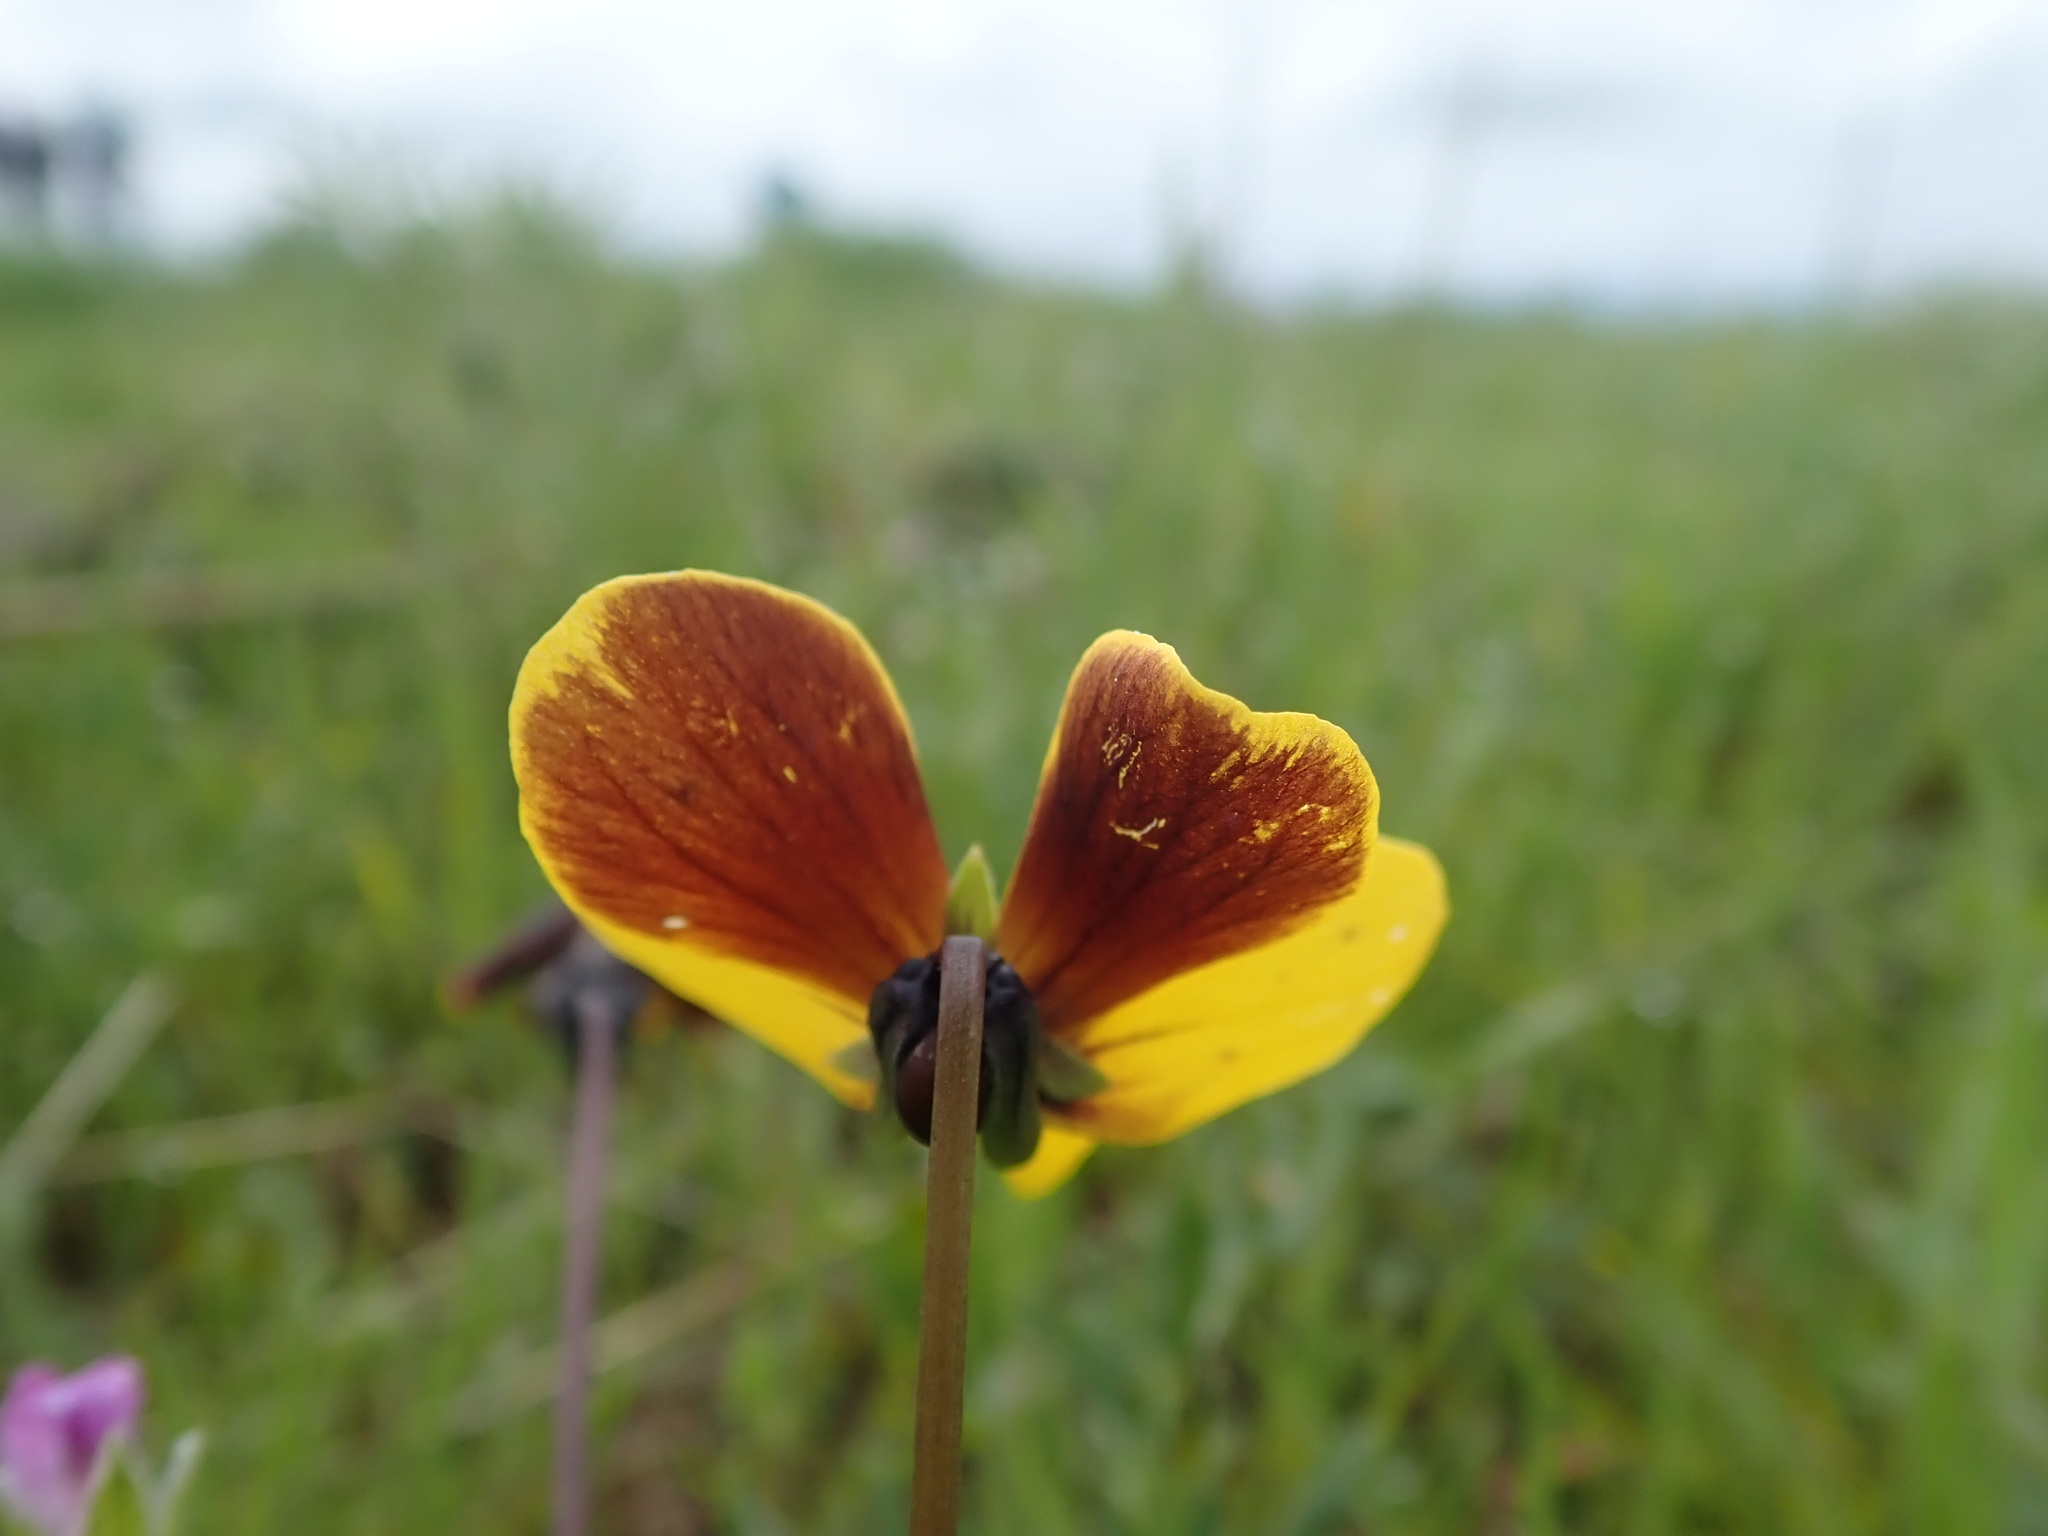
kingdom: Plantae
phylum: Tracheophyta
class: Magnoliopsida
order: Malpighiales
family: Violaceae
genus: Viola
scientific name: Viola douglasii
